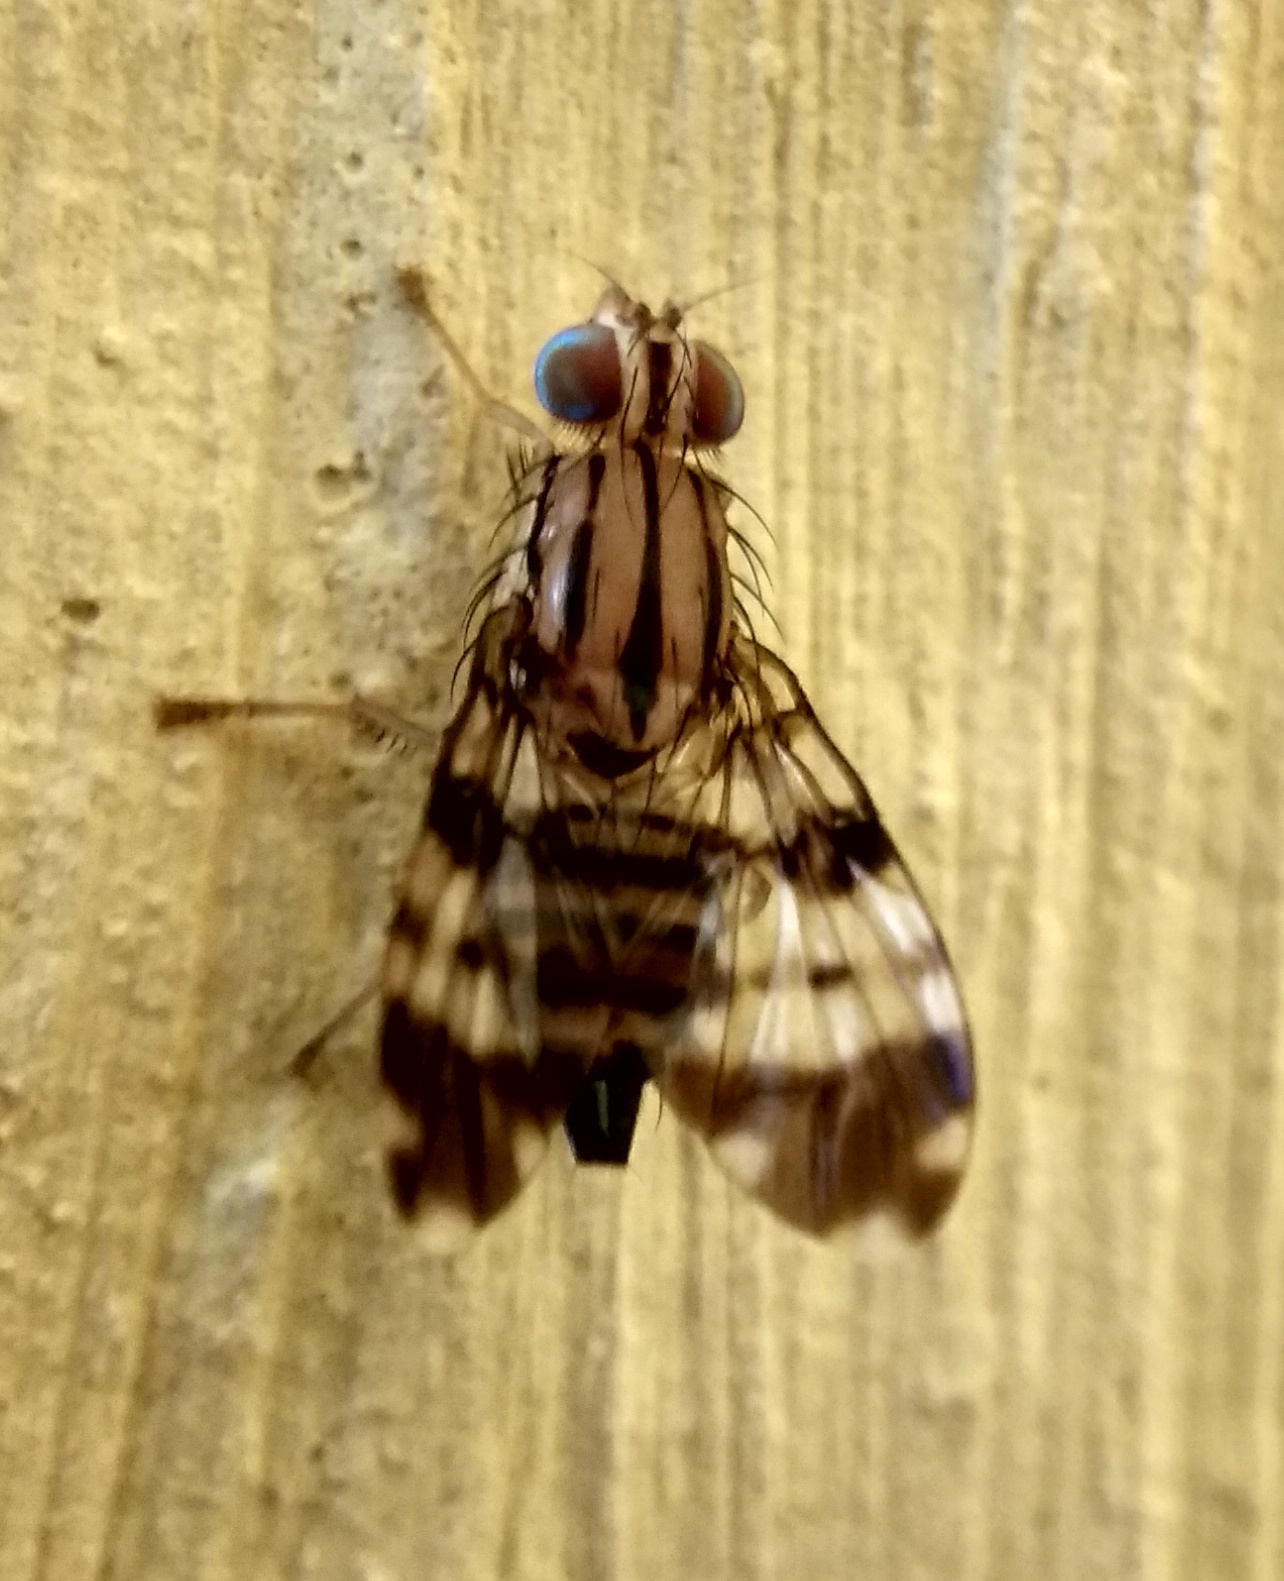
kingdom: Animalia
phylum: Arthropoda
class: Insecta
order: Diptera
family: Tephritidae
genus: Taeniostola
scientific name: Taeniostola vittigera
